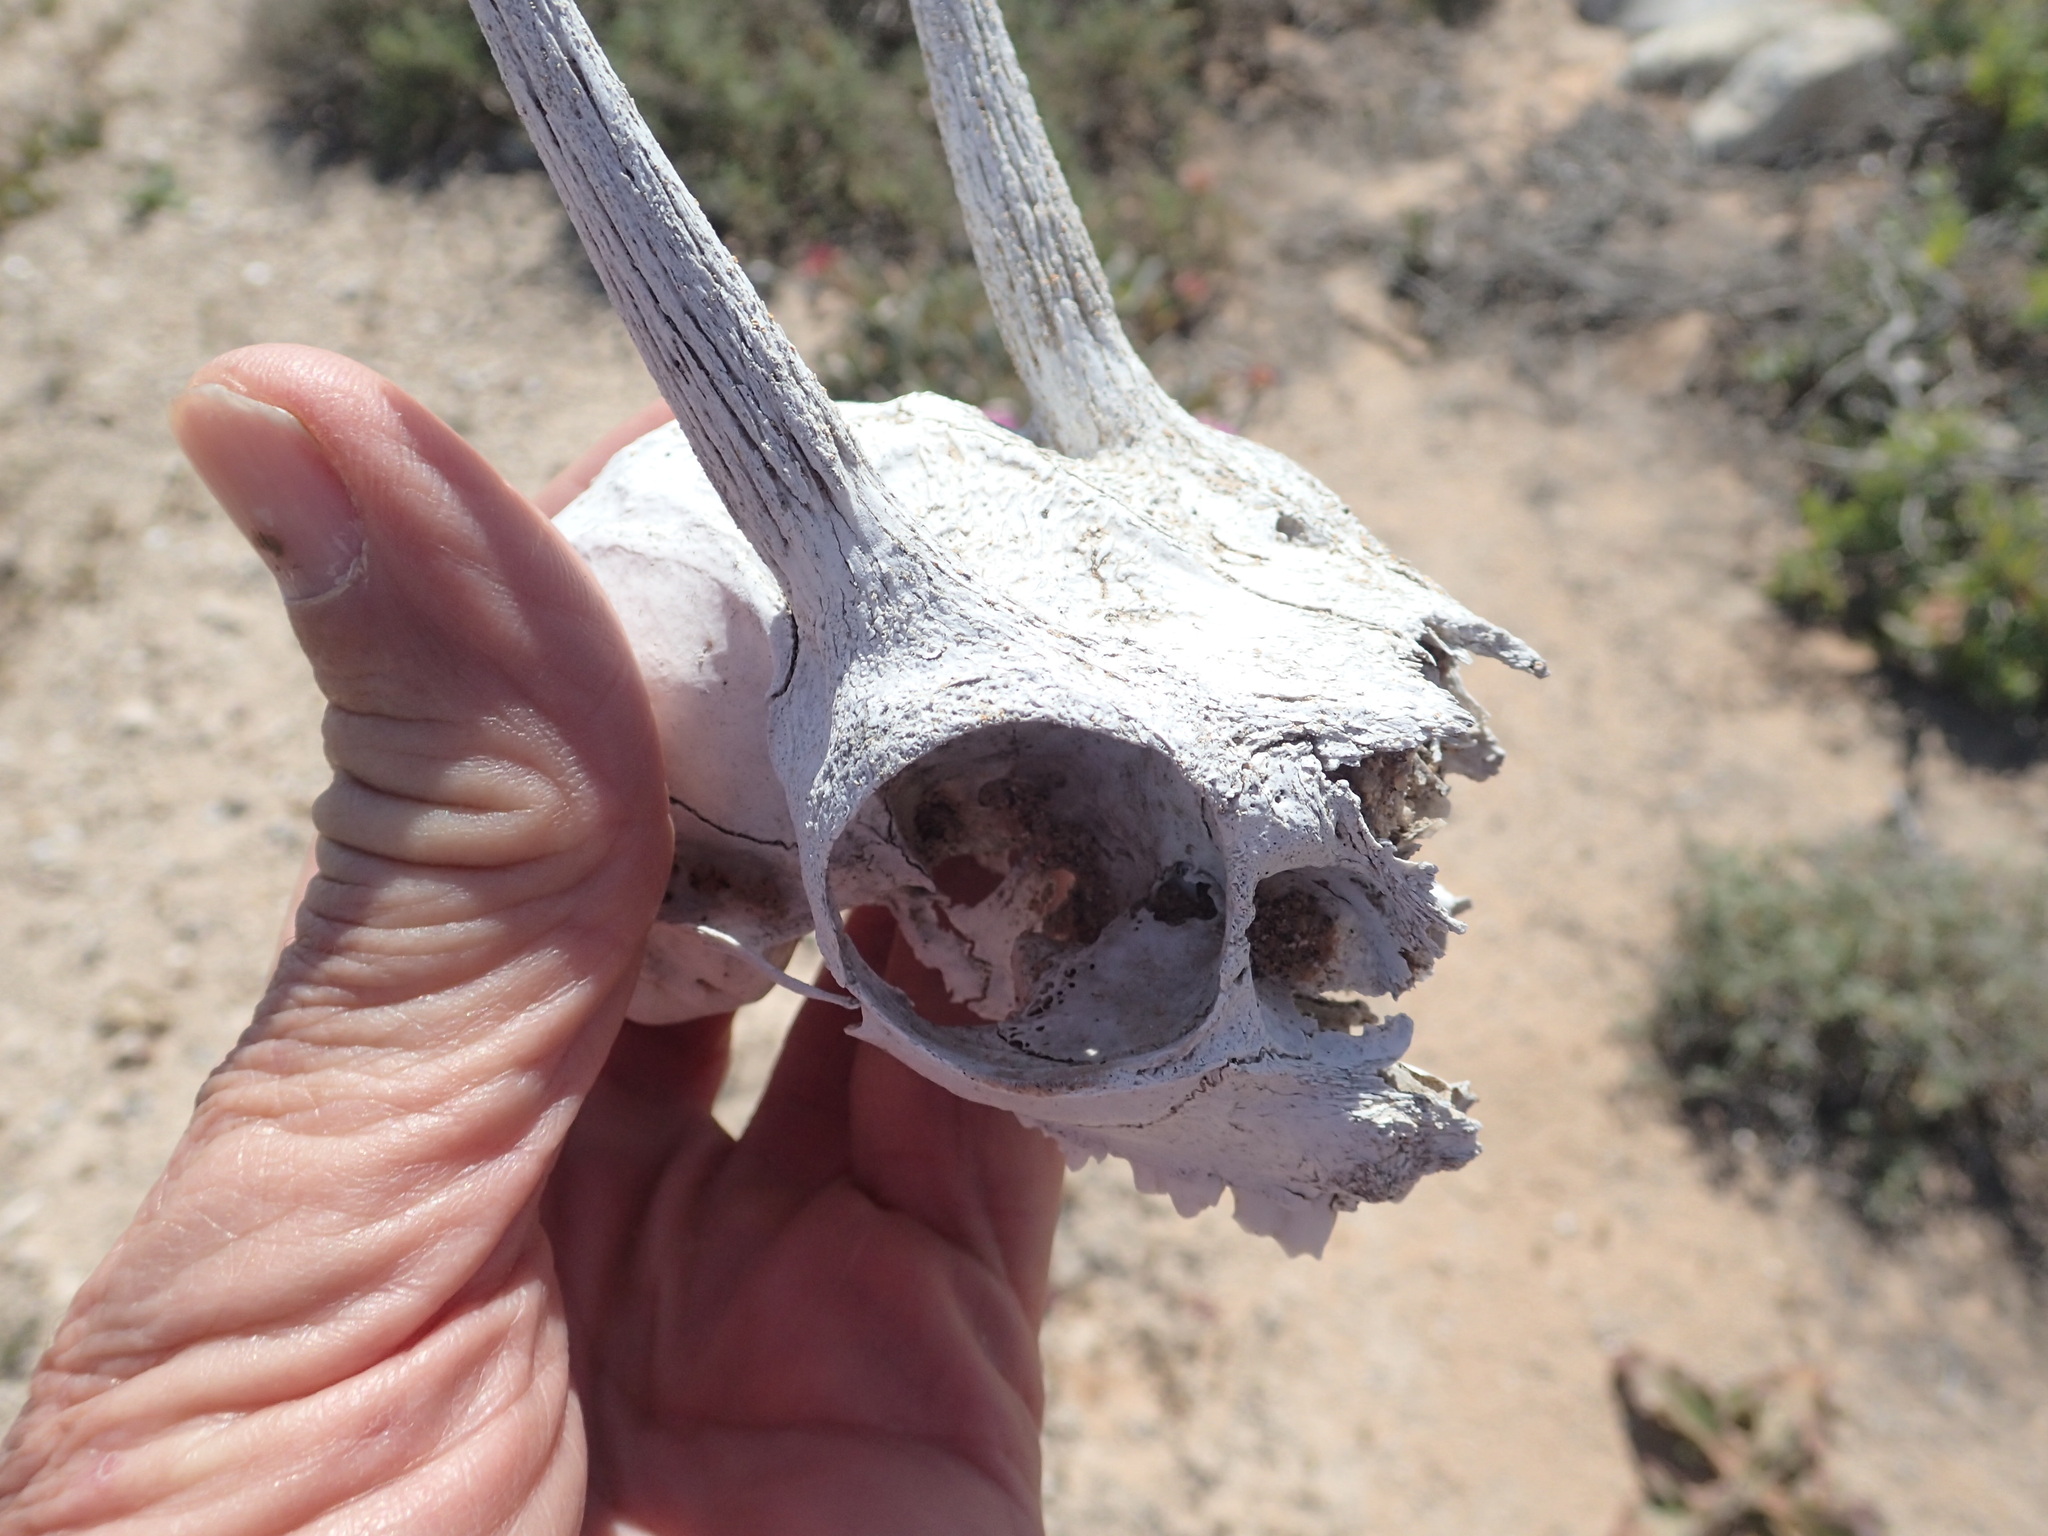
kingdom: Animalia
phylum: Chordata
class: Mammalia
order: Artiodactyla
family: Bovidae
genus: Raphicerus
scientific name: Raphicerus campestris
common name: Steenbok
